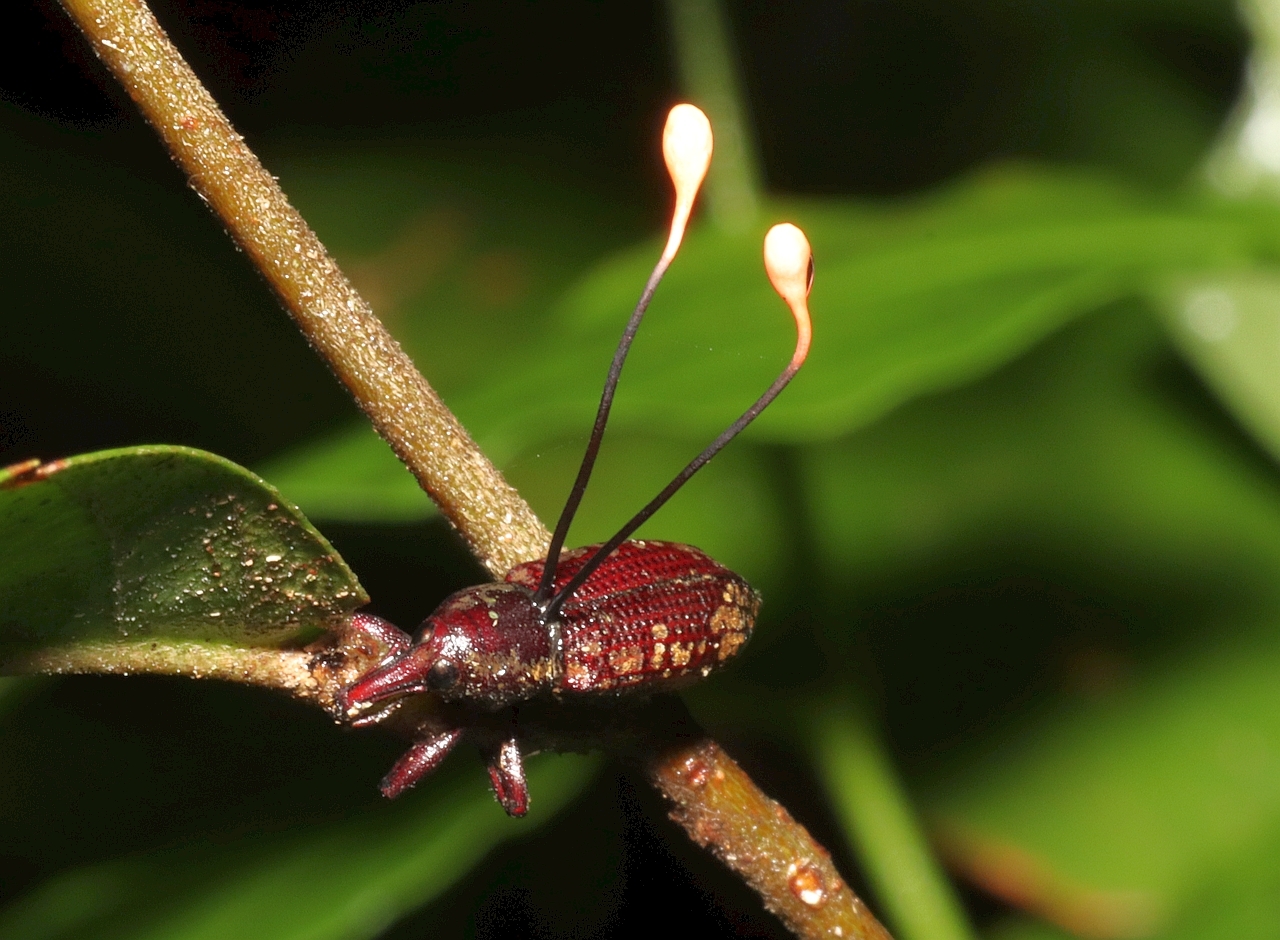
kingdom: Fungi
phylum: Ascomycota
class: Sordariomycetes
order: Hypocreales
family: Ophiocordycipitaceae
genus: Ophiocordyceps
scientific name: Ophiocordyceps curculionum
